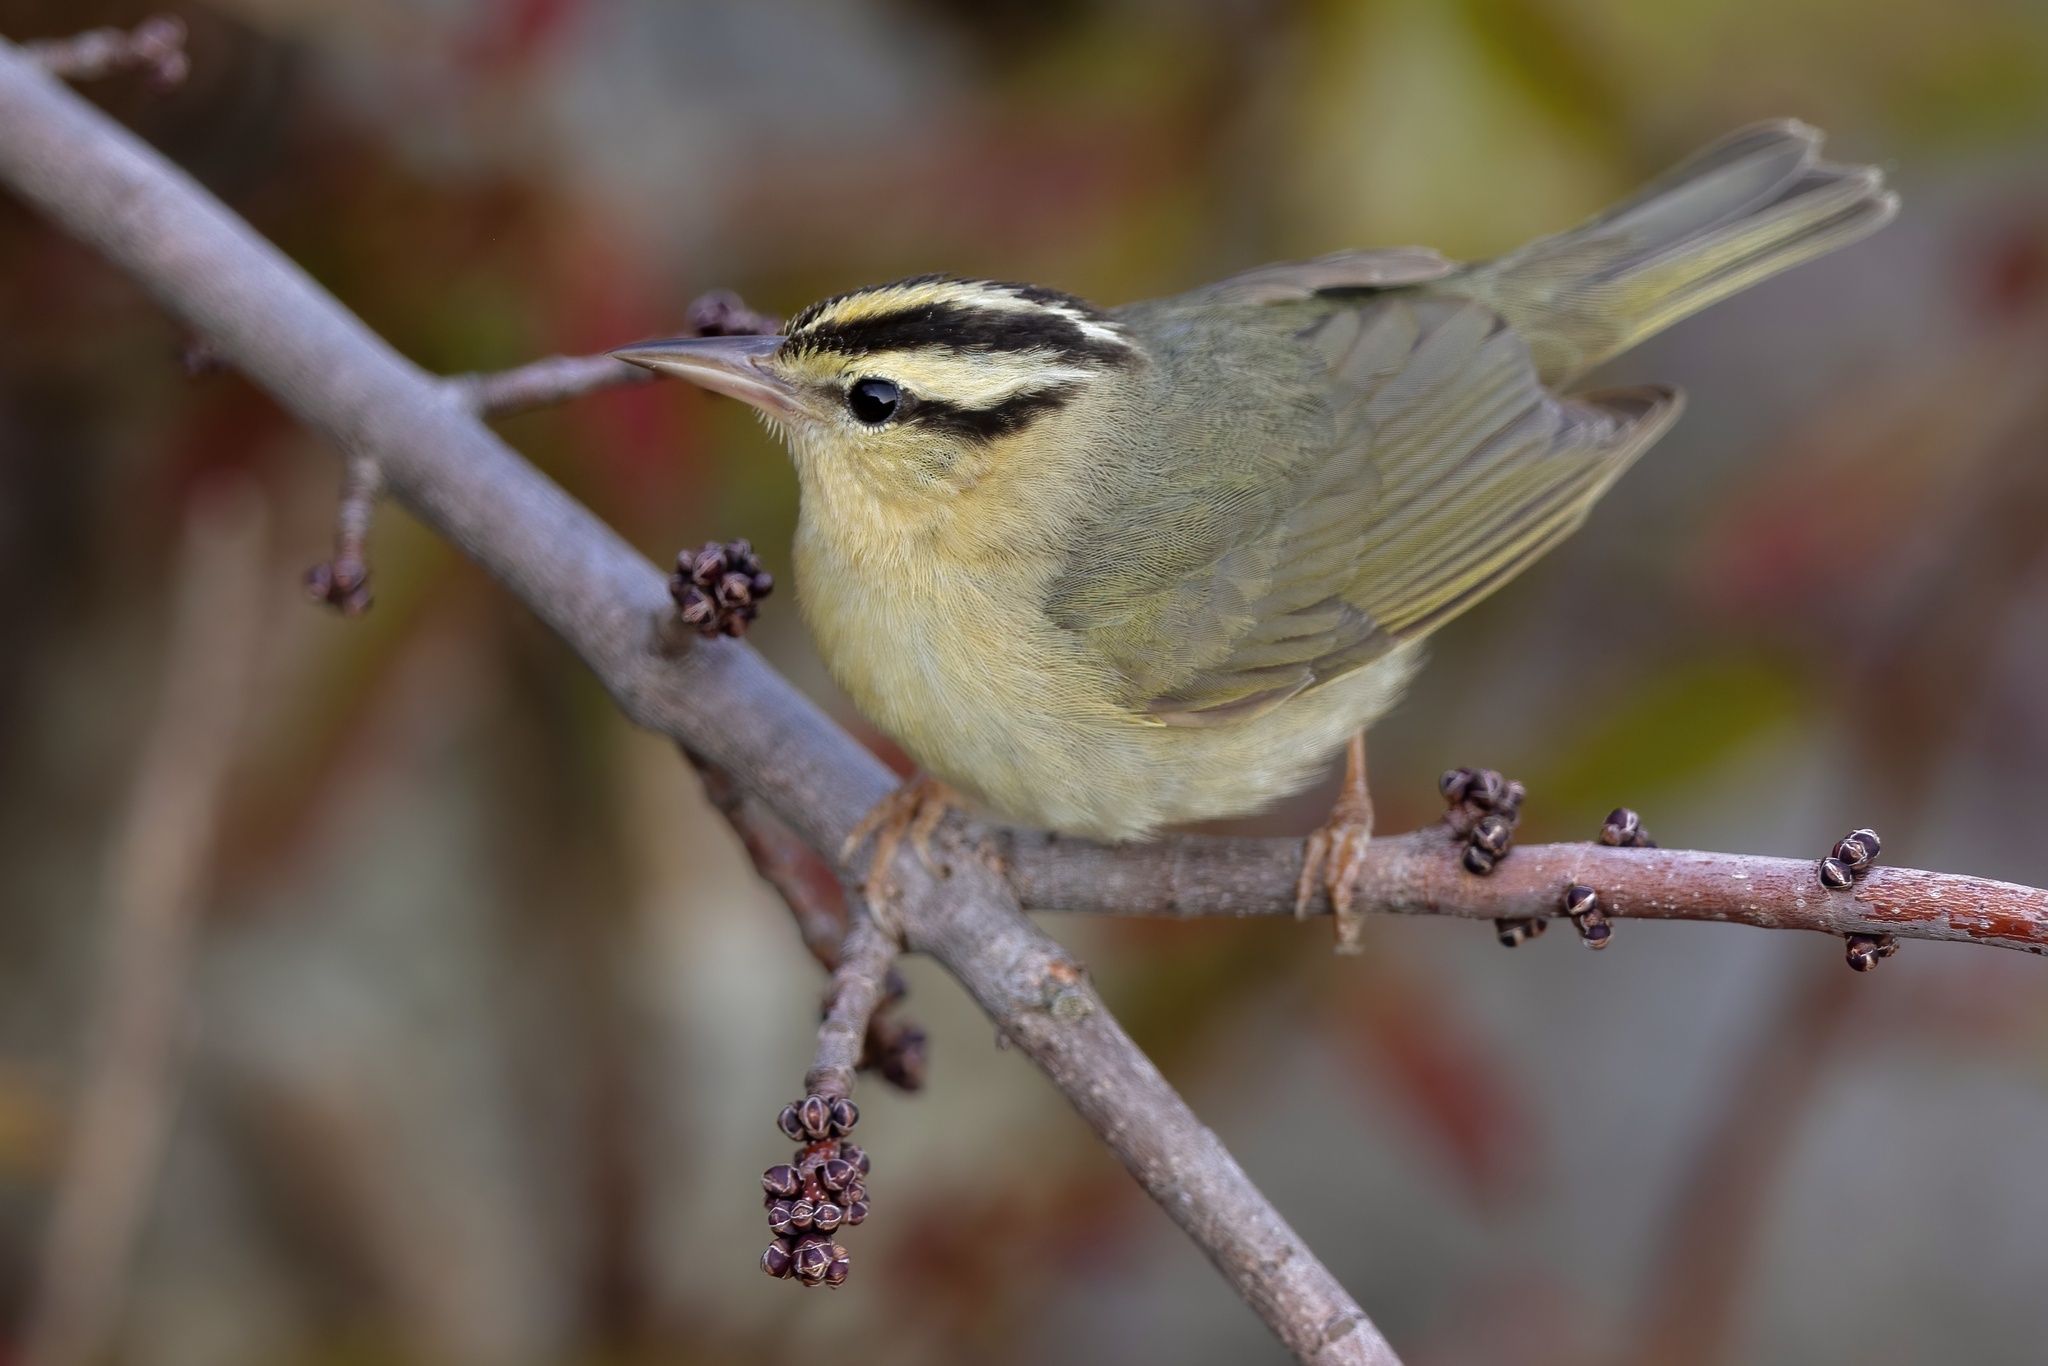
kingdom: Animalia
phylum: Chordata
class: Aves
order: Passeriformes
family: Parulidae
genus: Helmitheros
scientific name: Helmitheros vermivorum
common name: Worm-eating warbler
